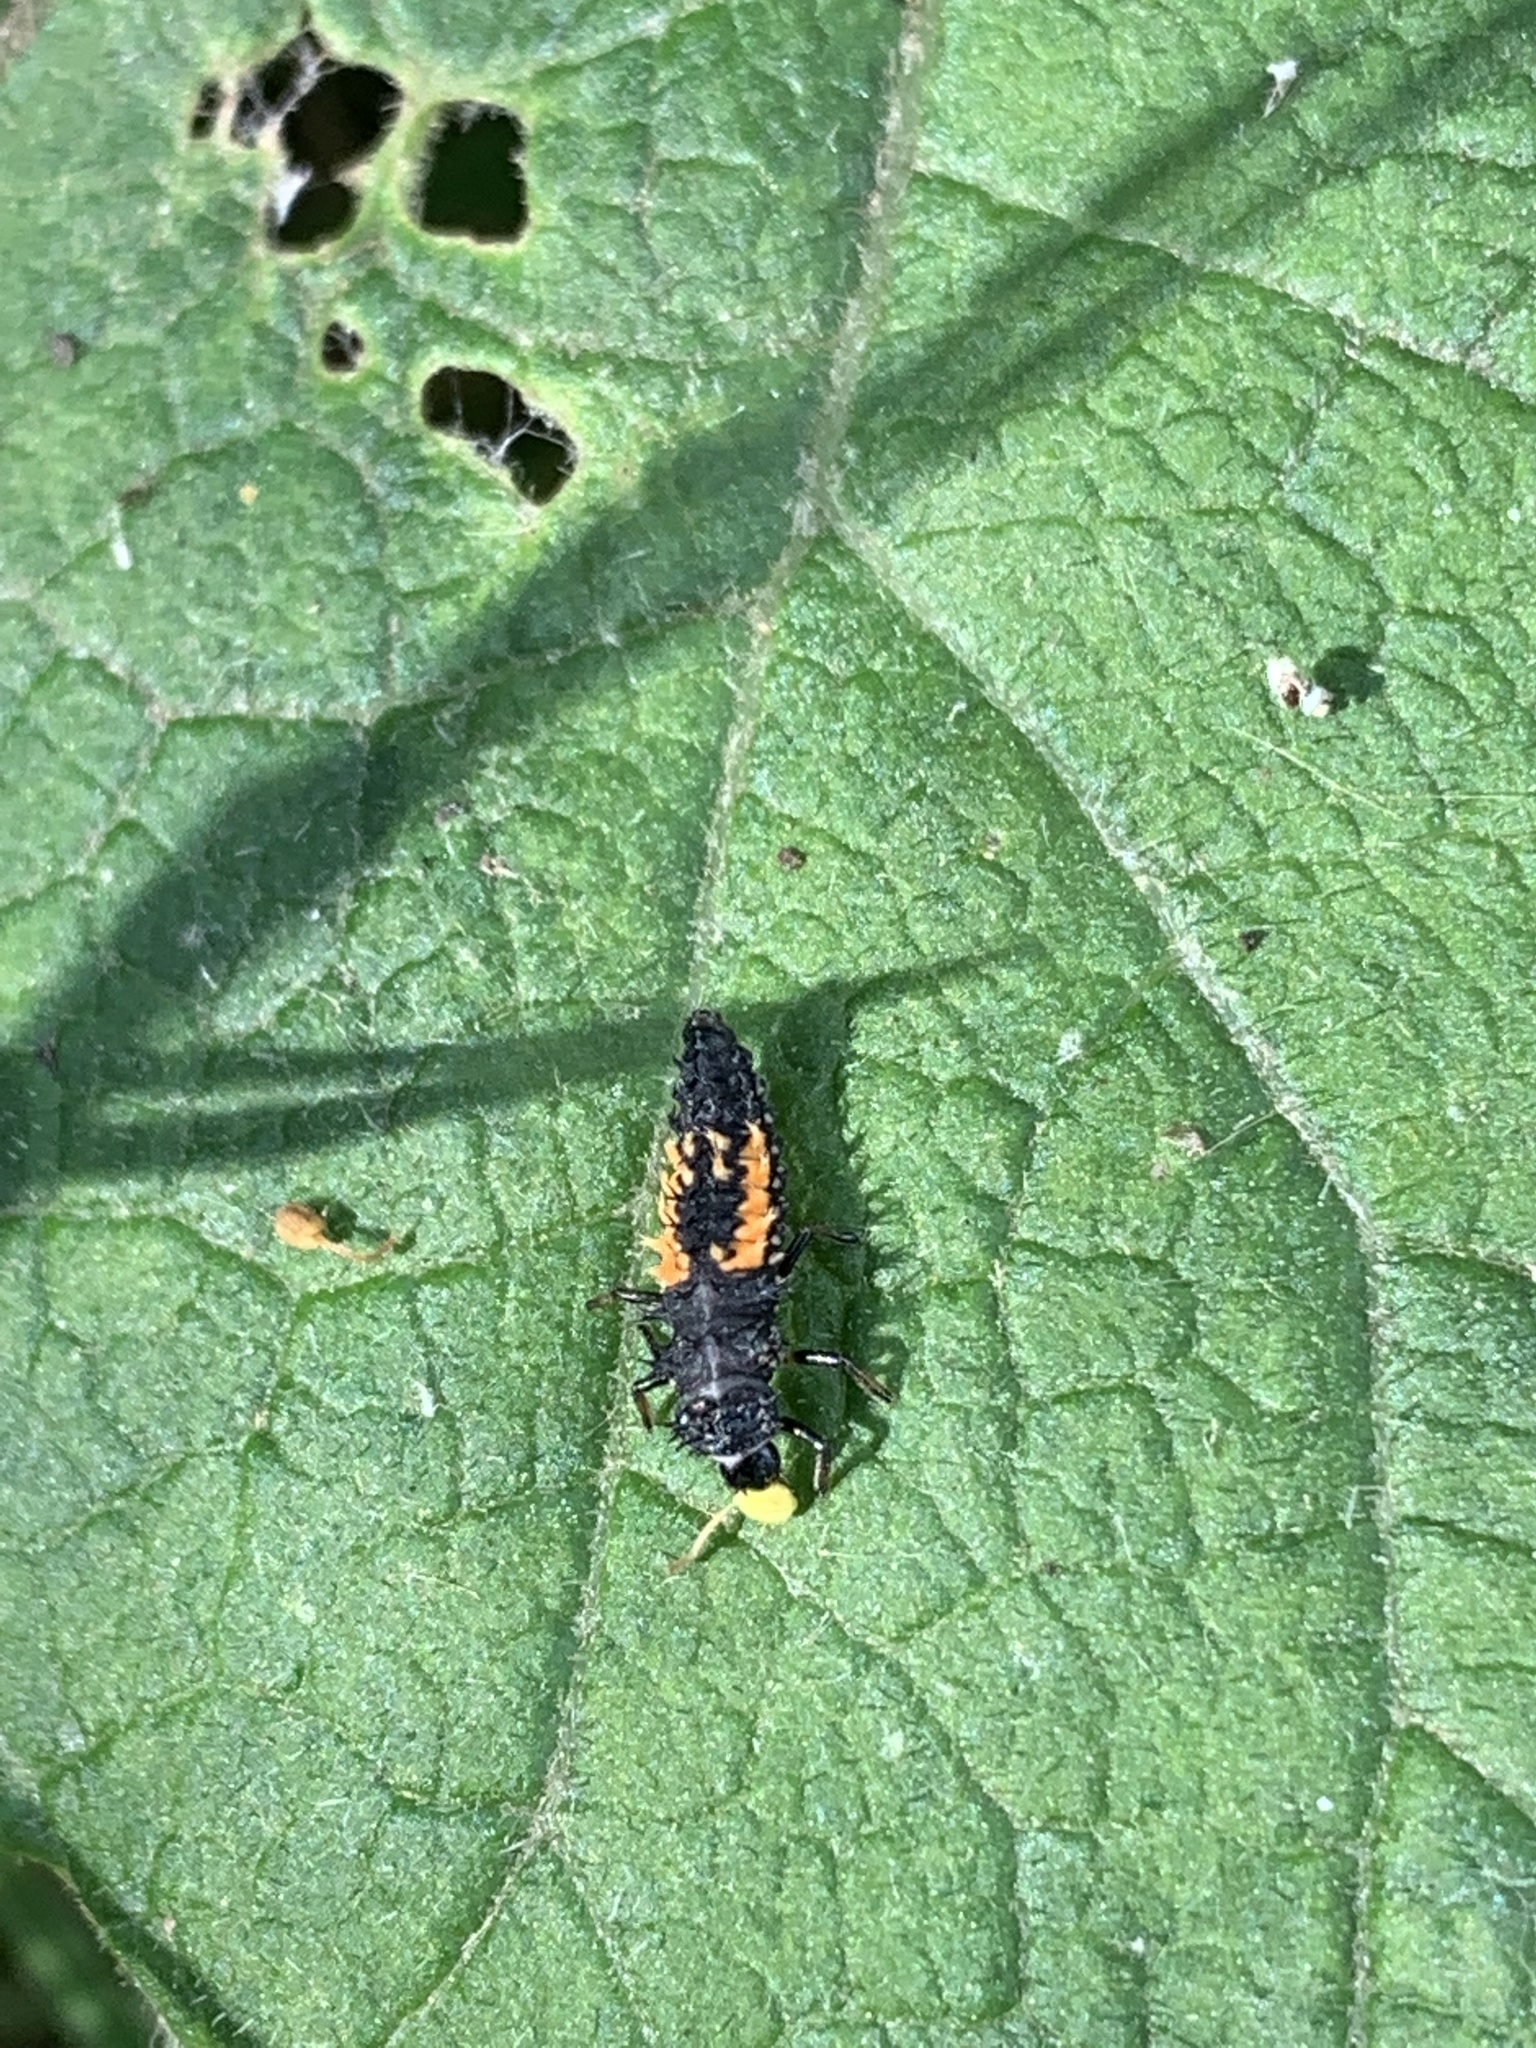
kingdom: Animalia
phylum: Arthropoda
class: Insecta
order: Coleoptera
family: Coccinellidae
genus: Harmonia
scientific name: Harmonia axyridis
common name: Harlequin ladybird
